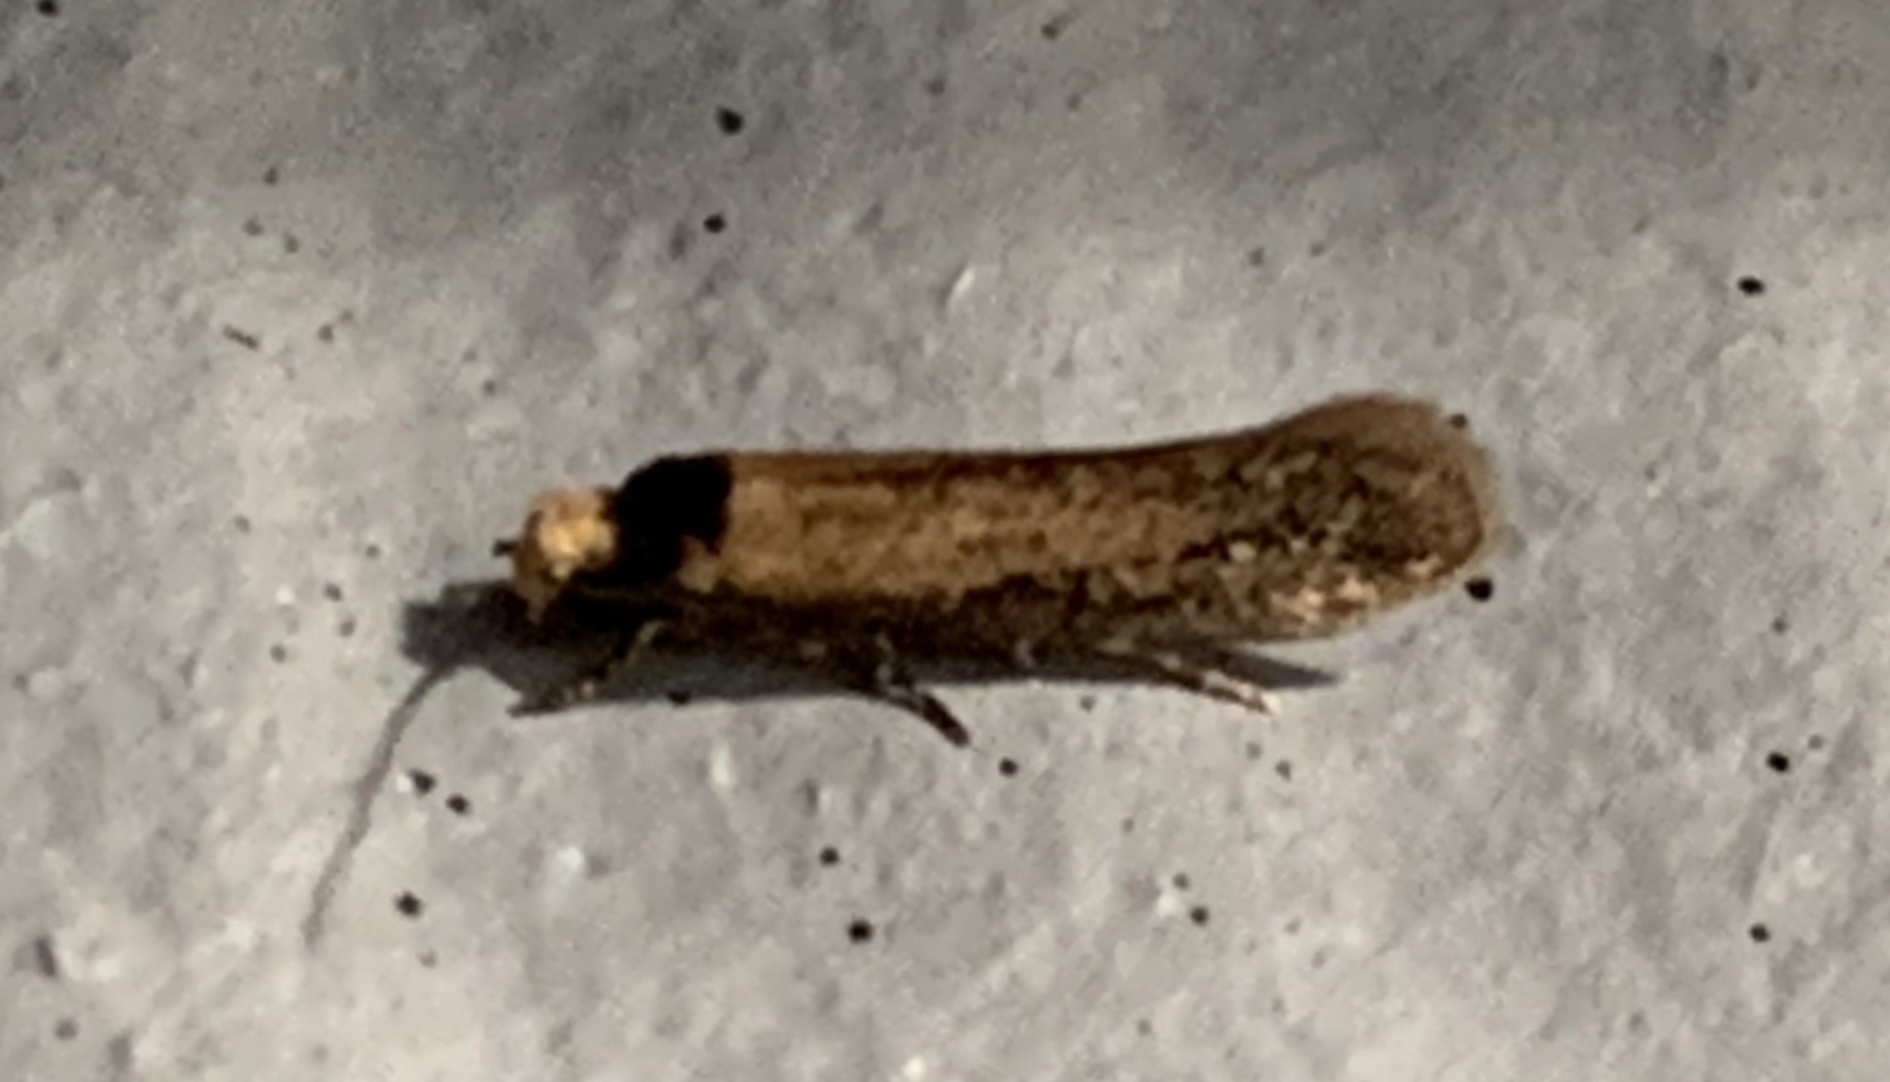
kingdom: Animalia
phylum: Arthropoda
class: Insecta
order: Lepidoptera
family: Meessiidae
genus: Homostinea
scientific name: Homostinea curviliniella
